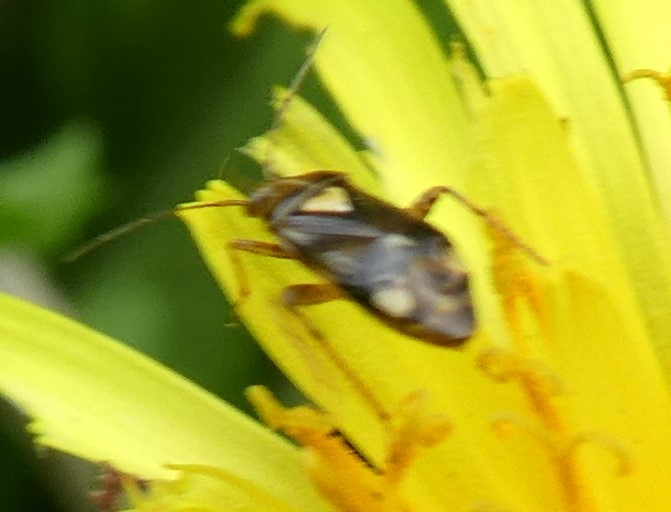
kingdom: Animalia
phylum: Arthropoda
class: Insecta
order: Hemiptera
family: Miridae
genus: Liocoris
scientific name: Liocoris tripustulatus
